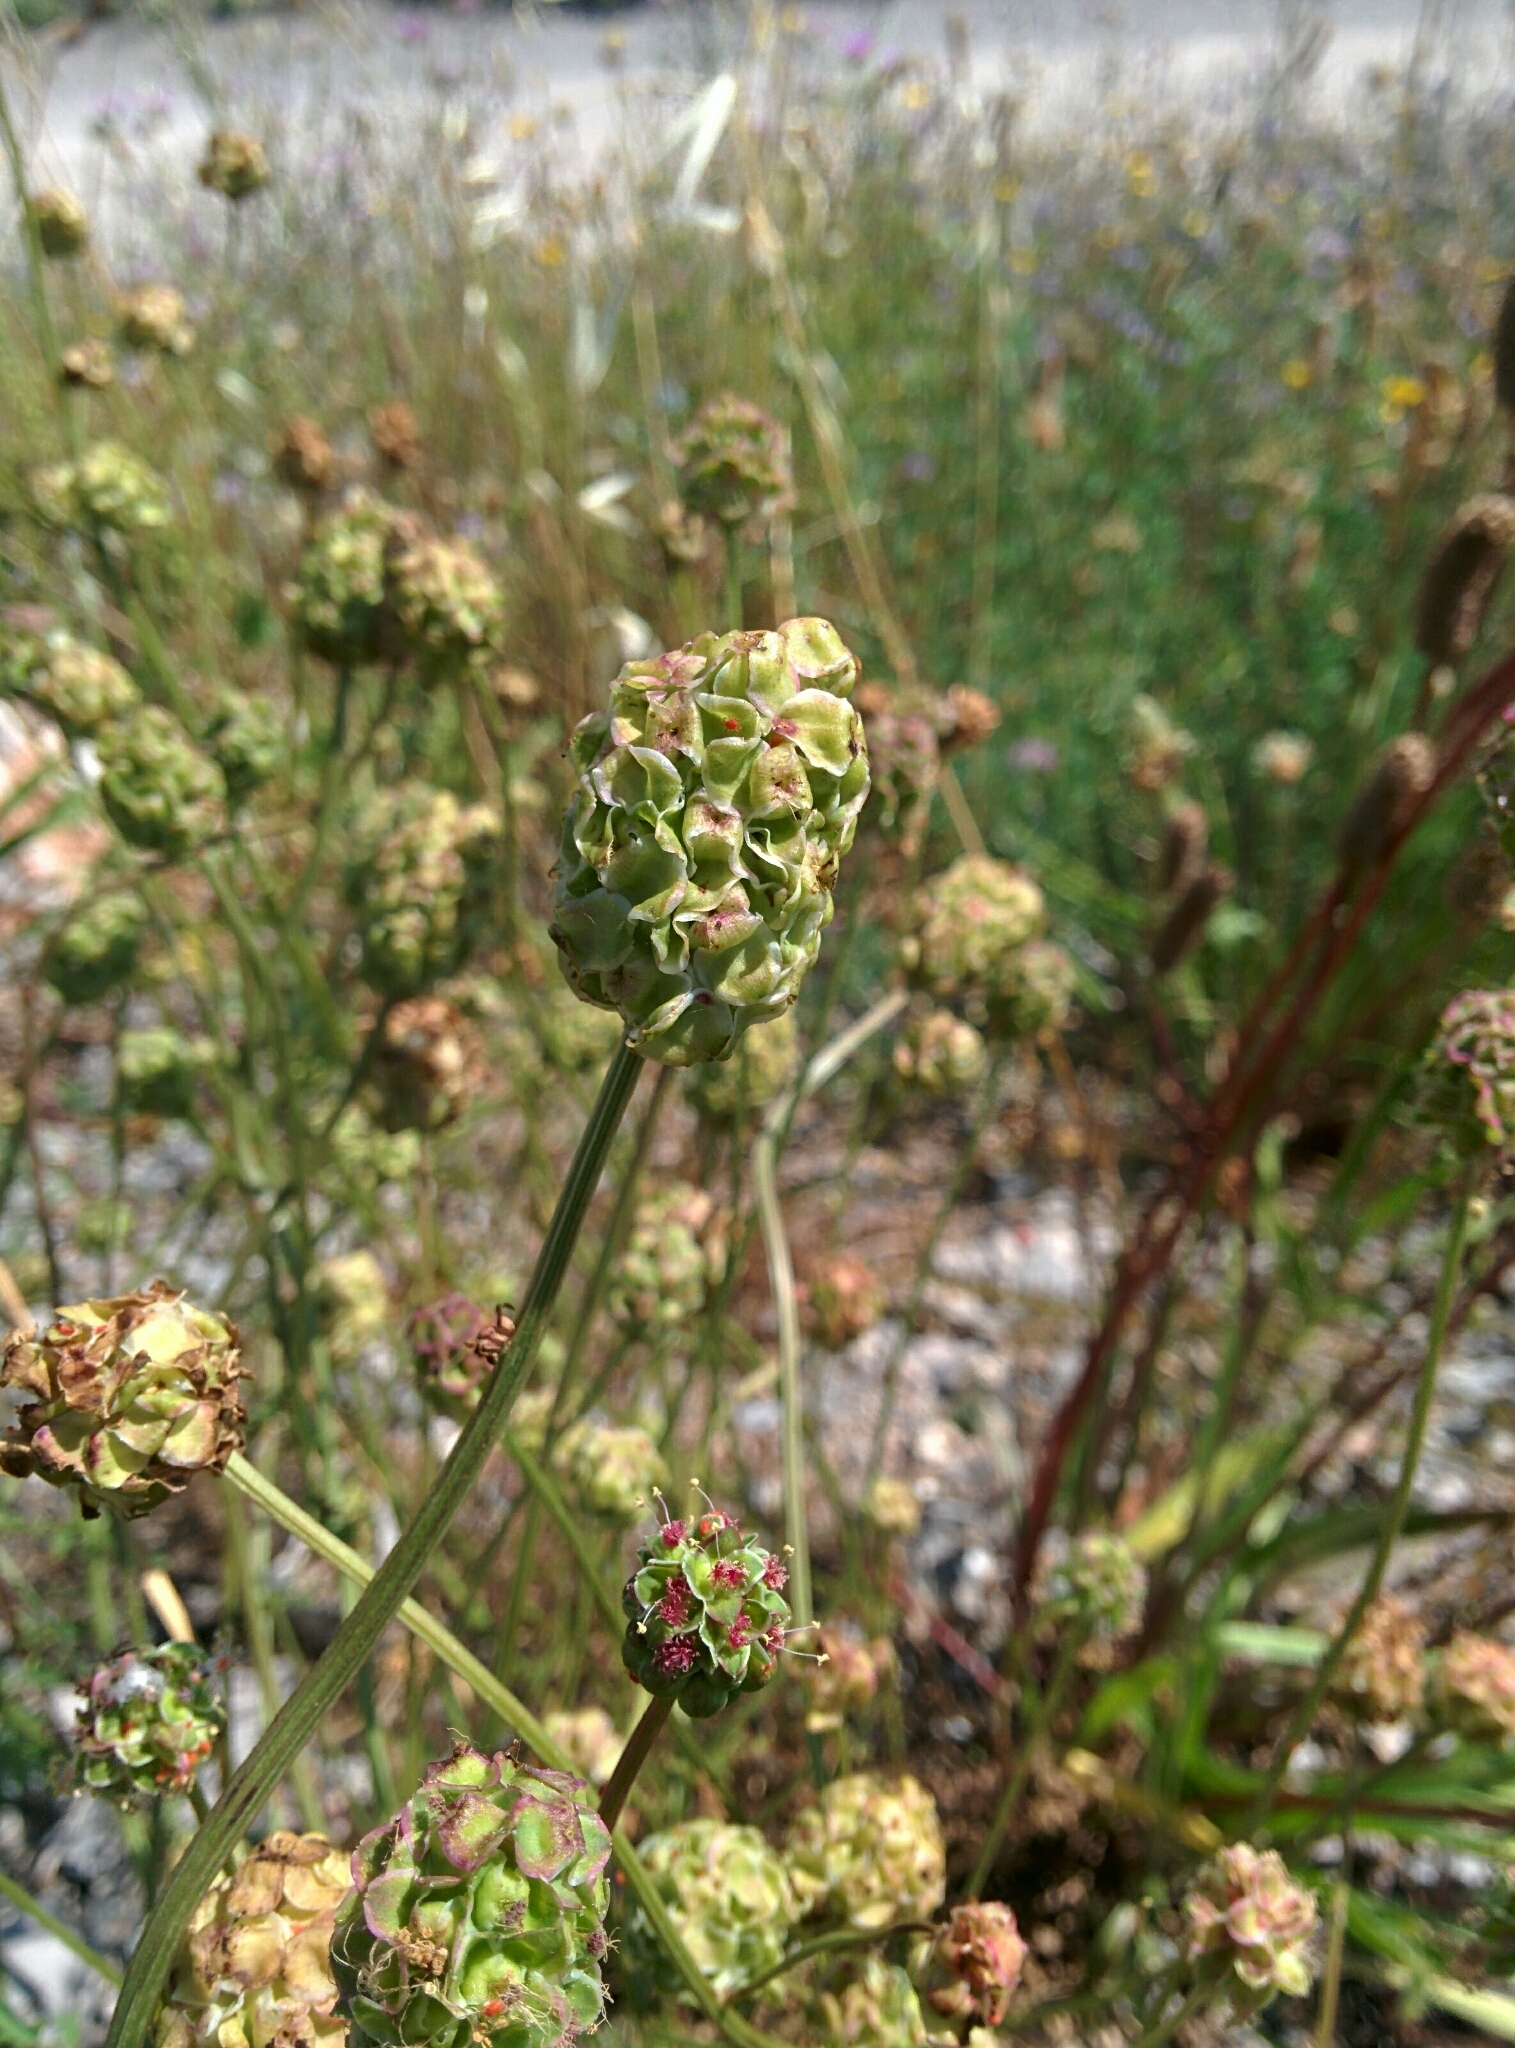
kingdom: Plantae
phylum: Tracheophyta
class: Magnoliopsida
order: Rosales
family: Rosaceae
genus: Poterium
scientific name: Poterium sanguisorba
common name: Salad burnet
